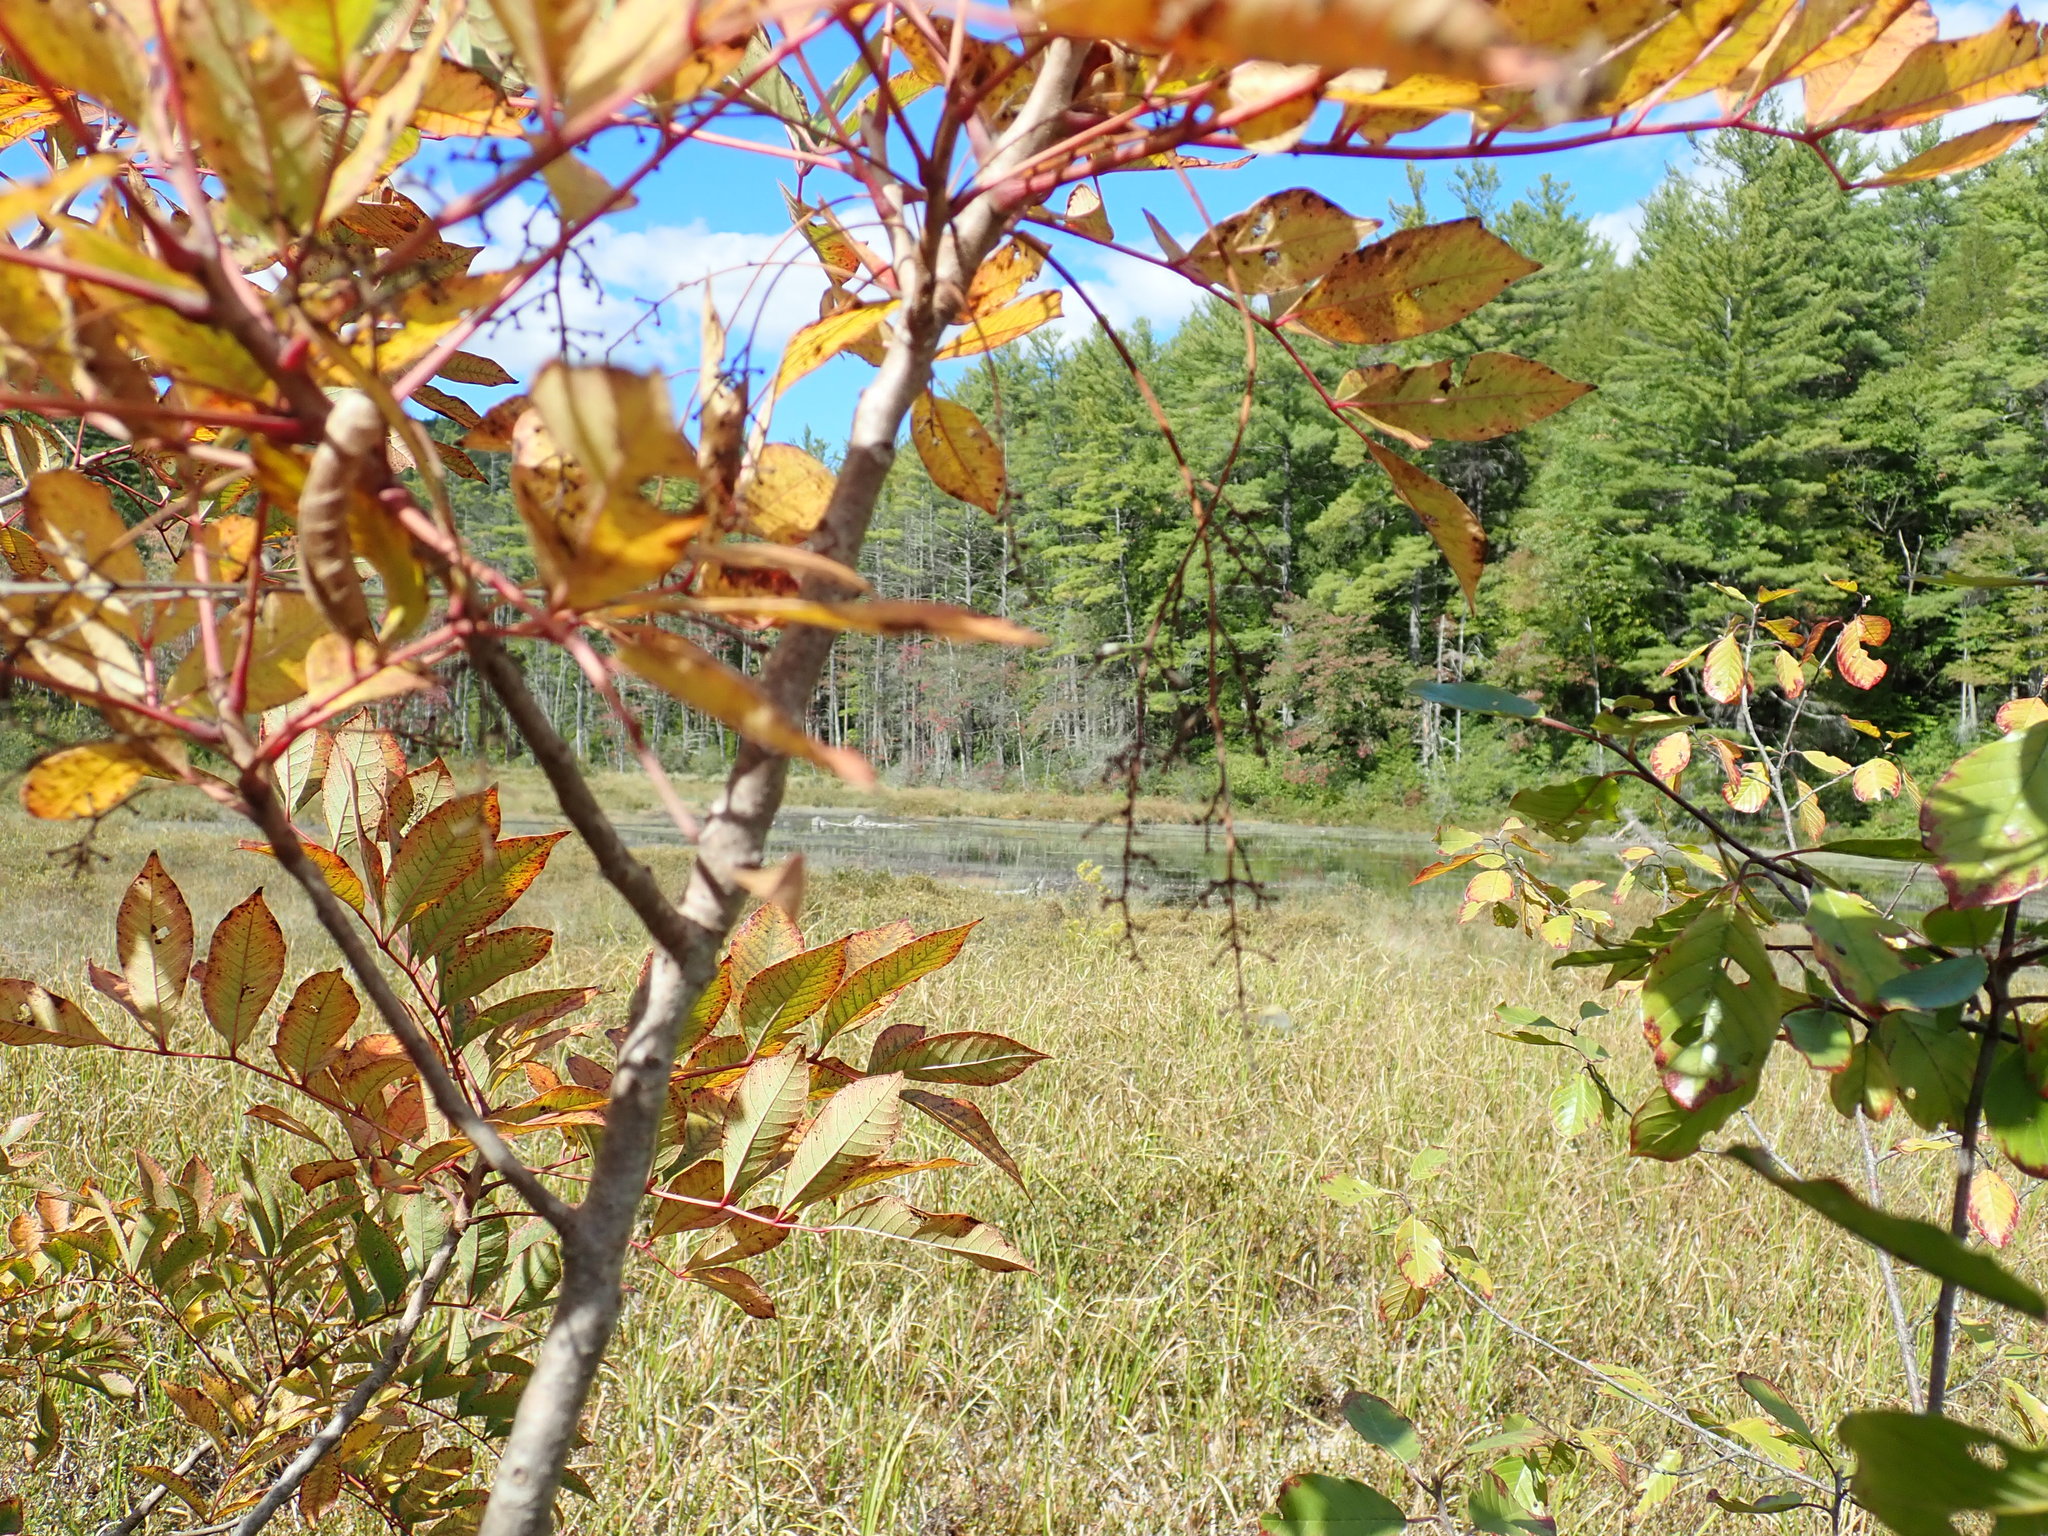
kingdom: Plantae
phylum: Tracheophyta
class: Magnoliopsida
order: Sapindales
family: Anacardiaceae
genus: Toxicodendron
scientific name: Toxicodendron vernix
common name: Poison sumac
